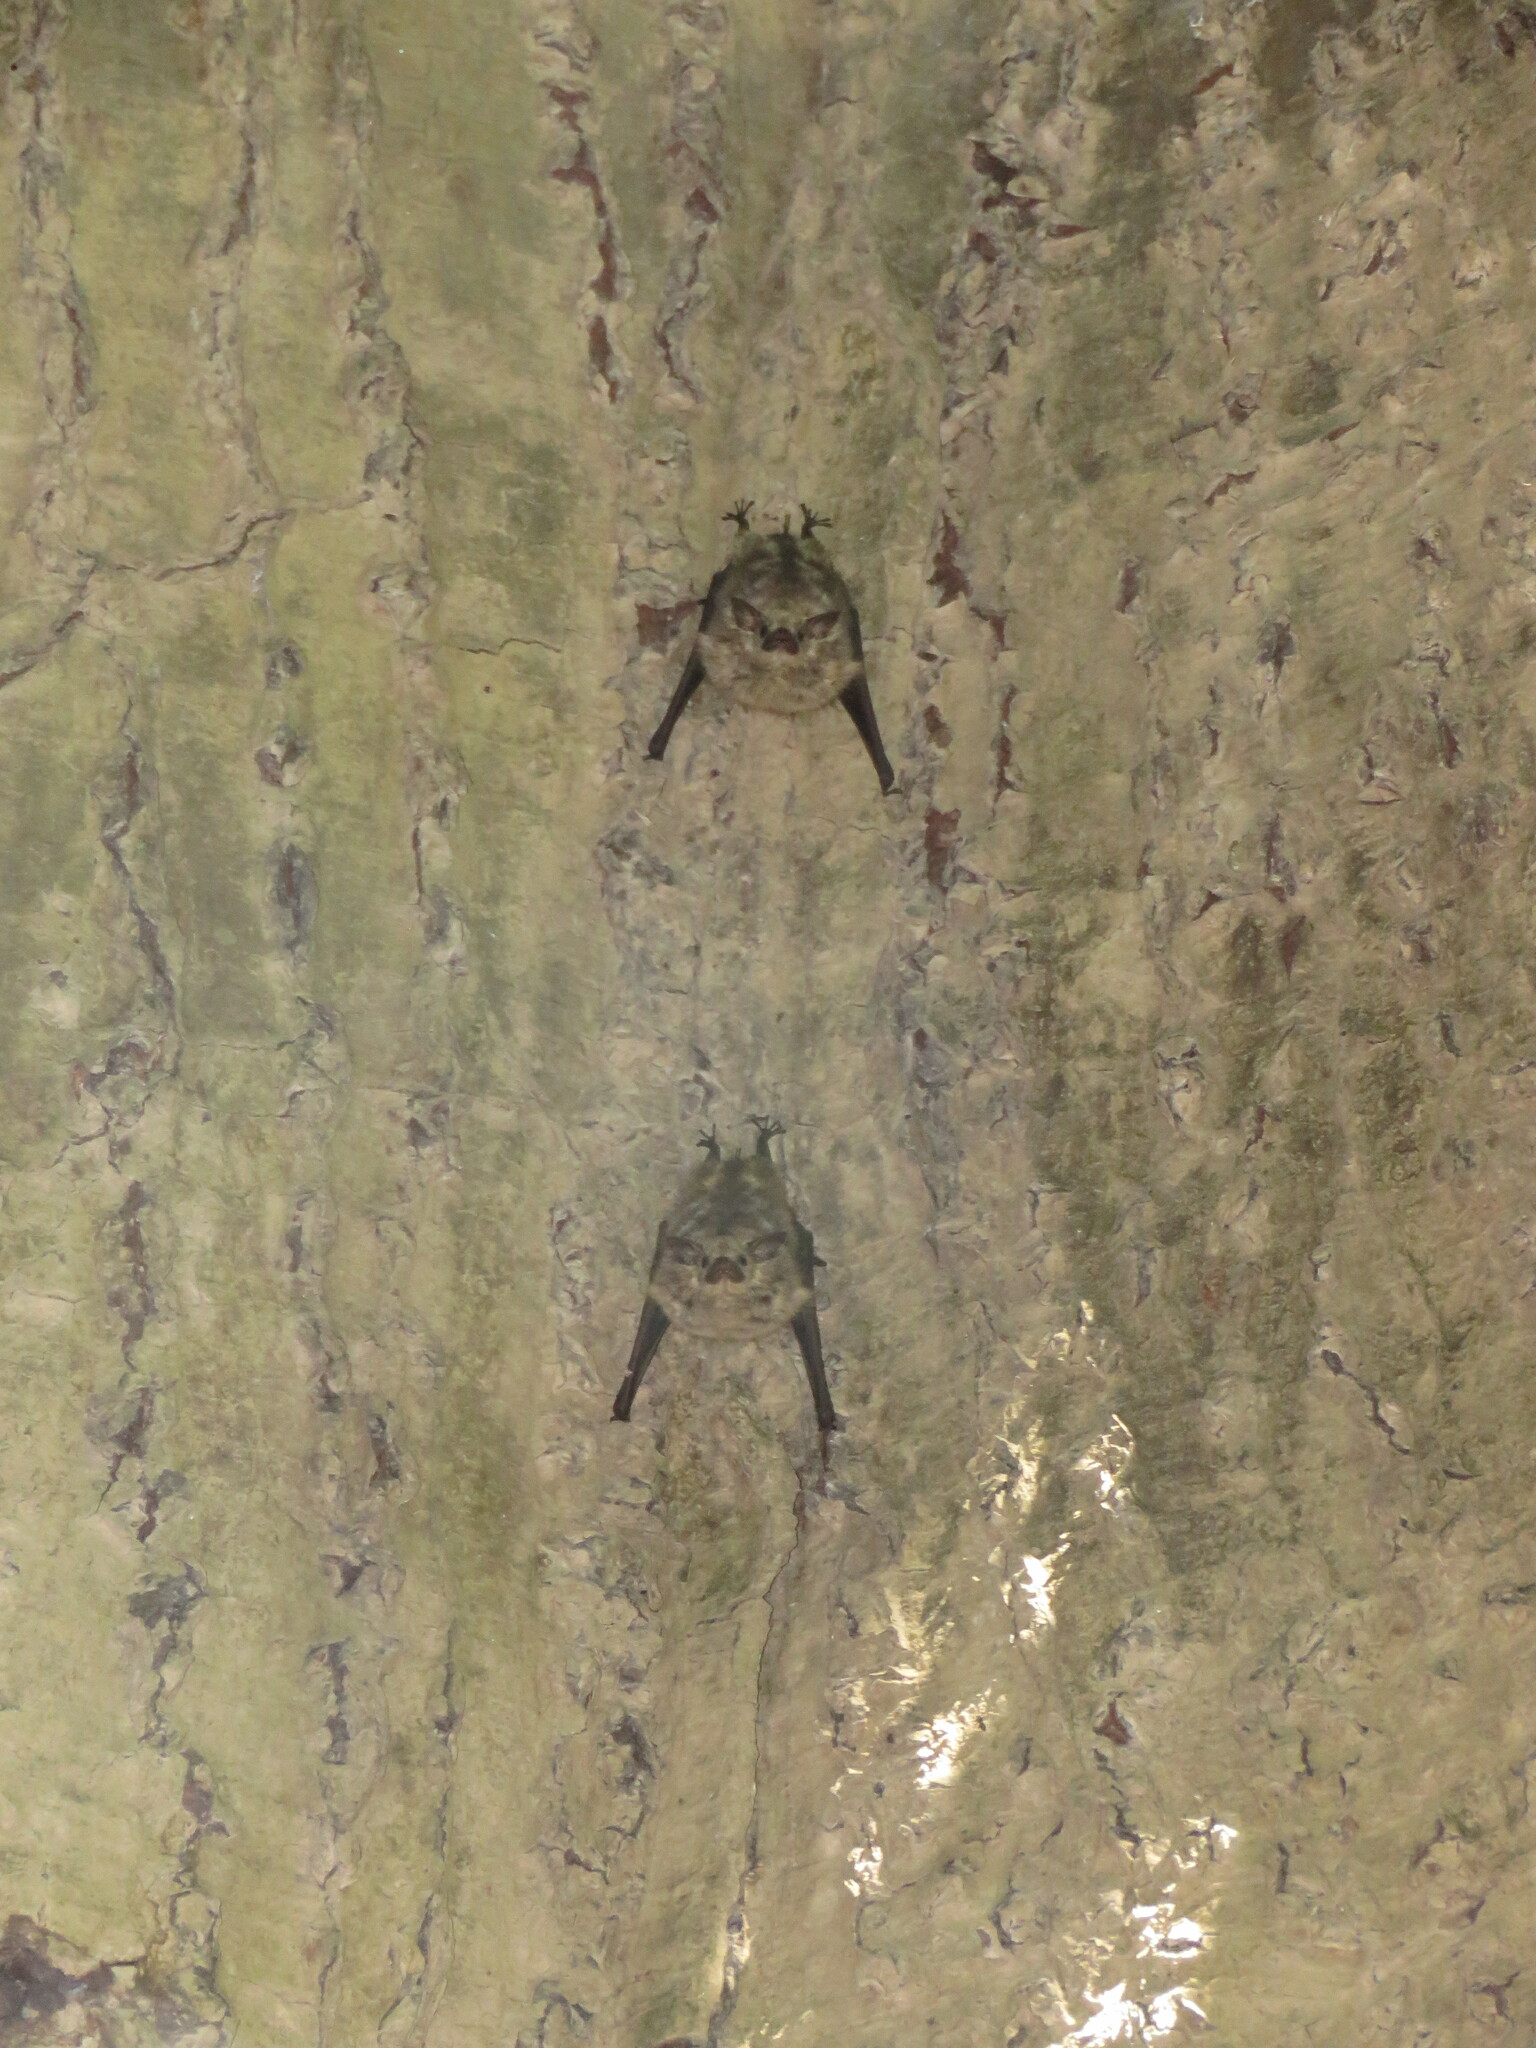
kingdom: Animalia
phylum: Chordata
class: Mammalia
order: Chiroptera
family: Emballonuridae
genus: Saccopteryx
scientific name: Saccopteryx
